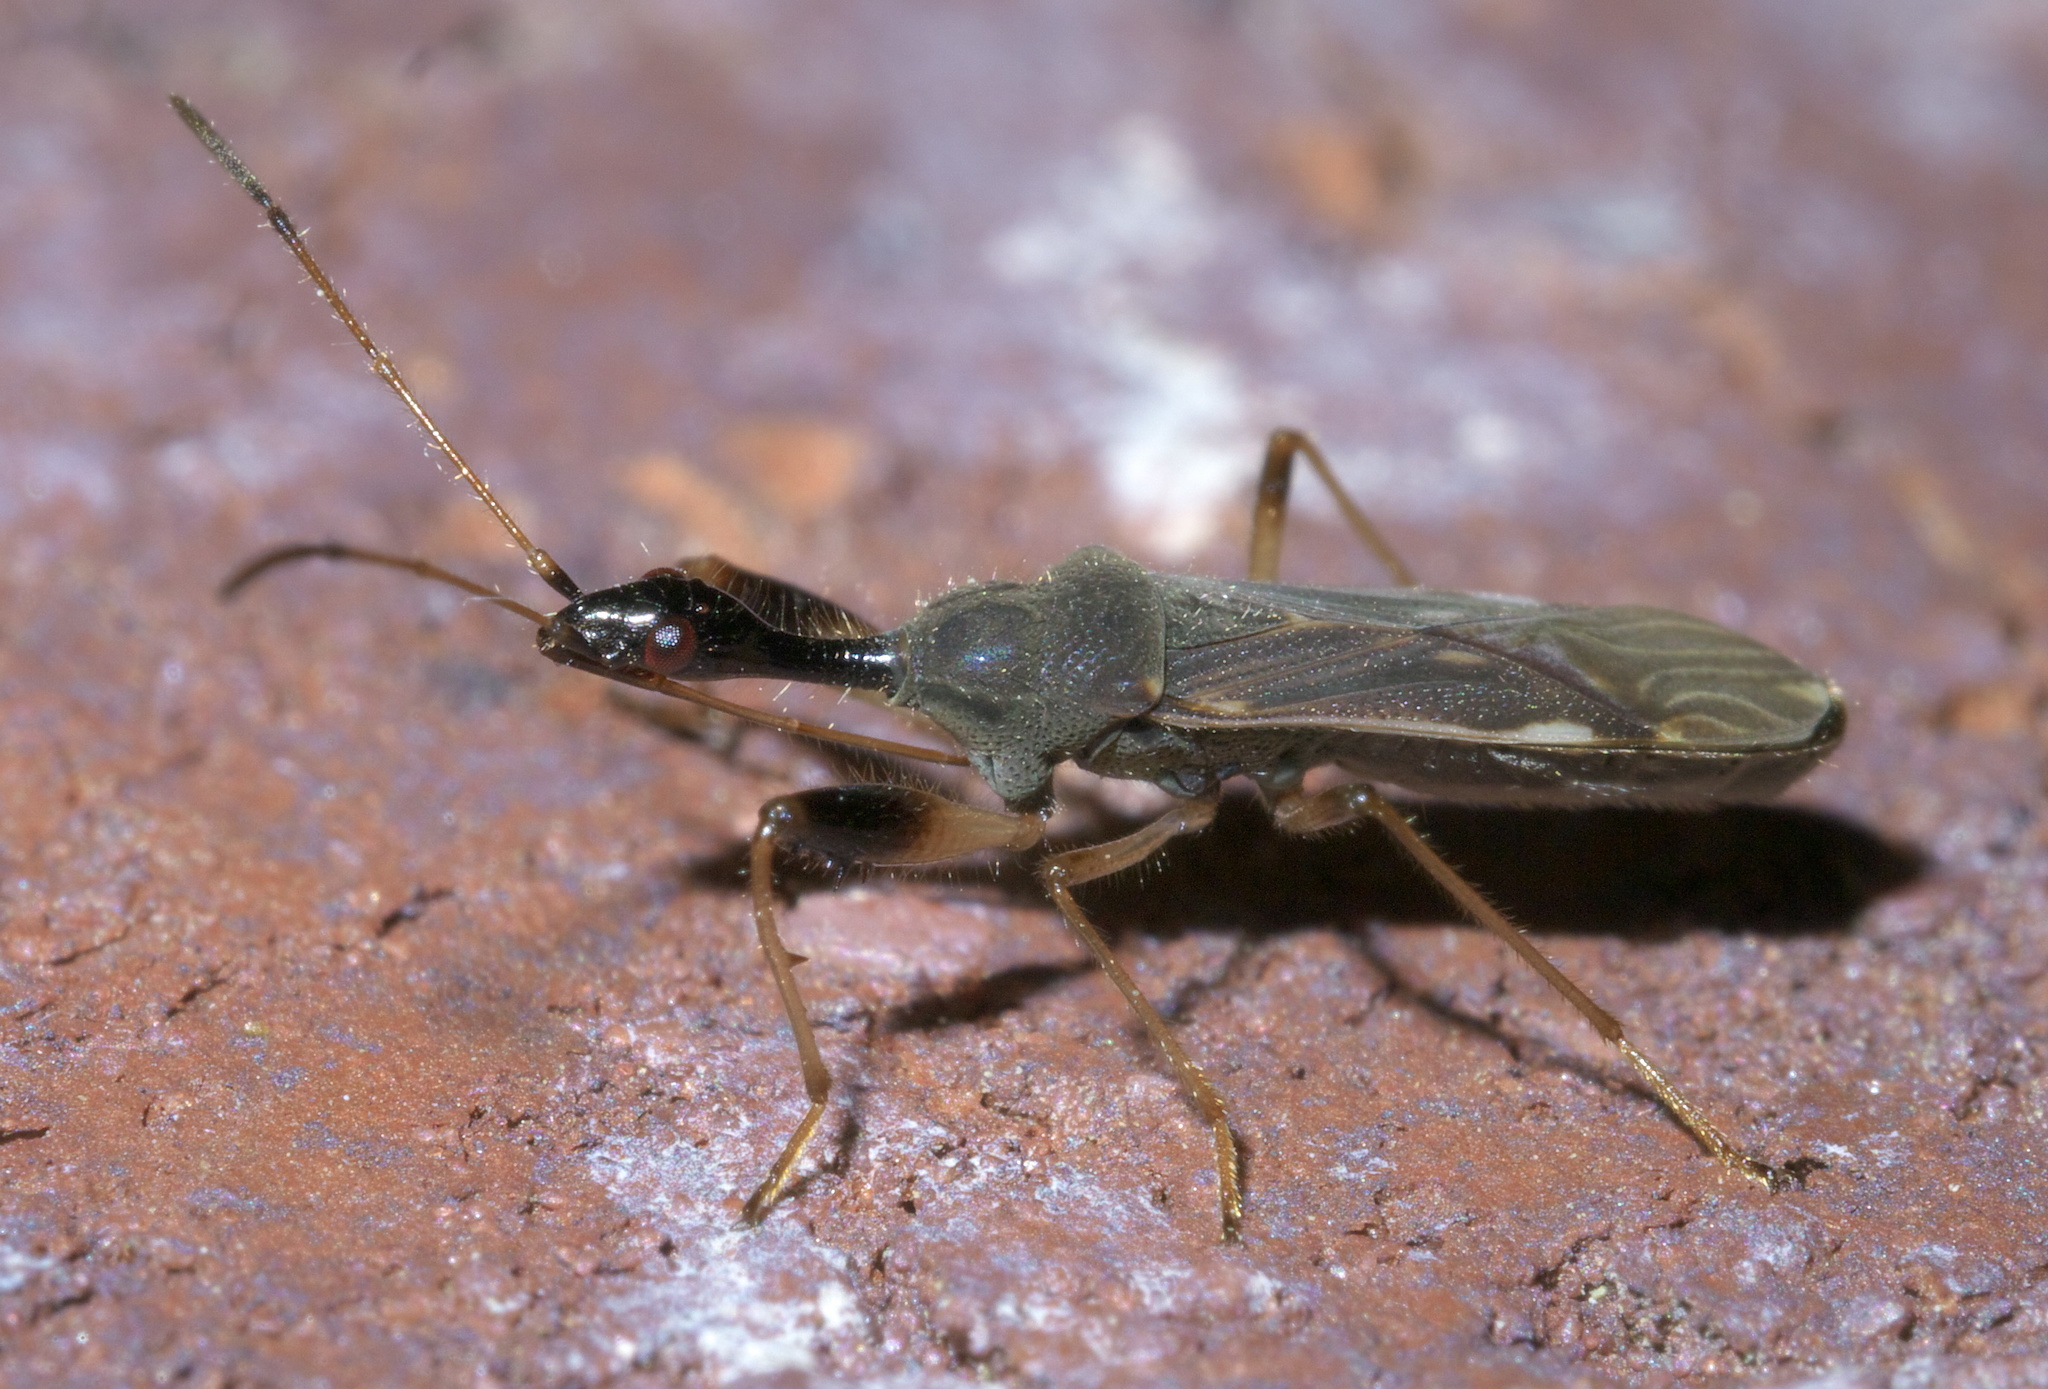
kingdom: Animalia
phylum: Arthropoda
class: Insecta
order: Hemiptera
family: Rhyparochromidae
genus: Myodocha
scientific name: Myodocha serripes
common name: Long-necked seed bug
